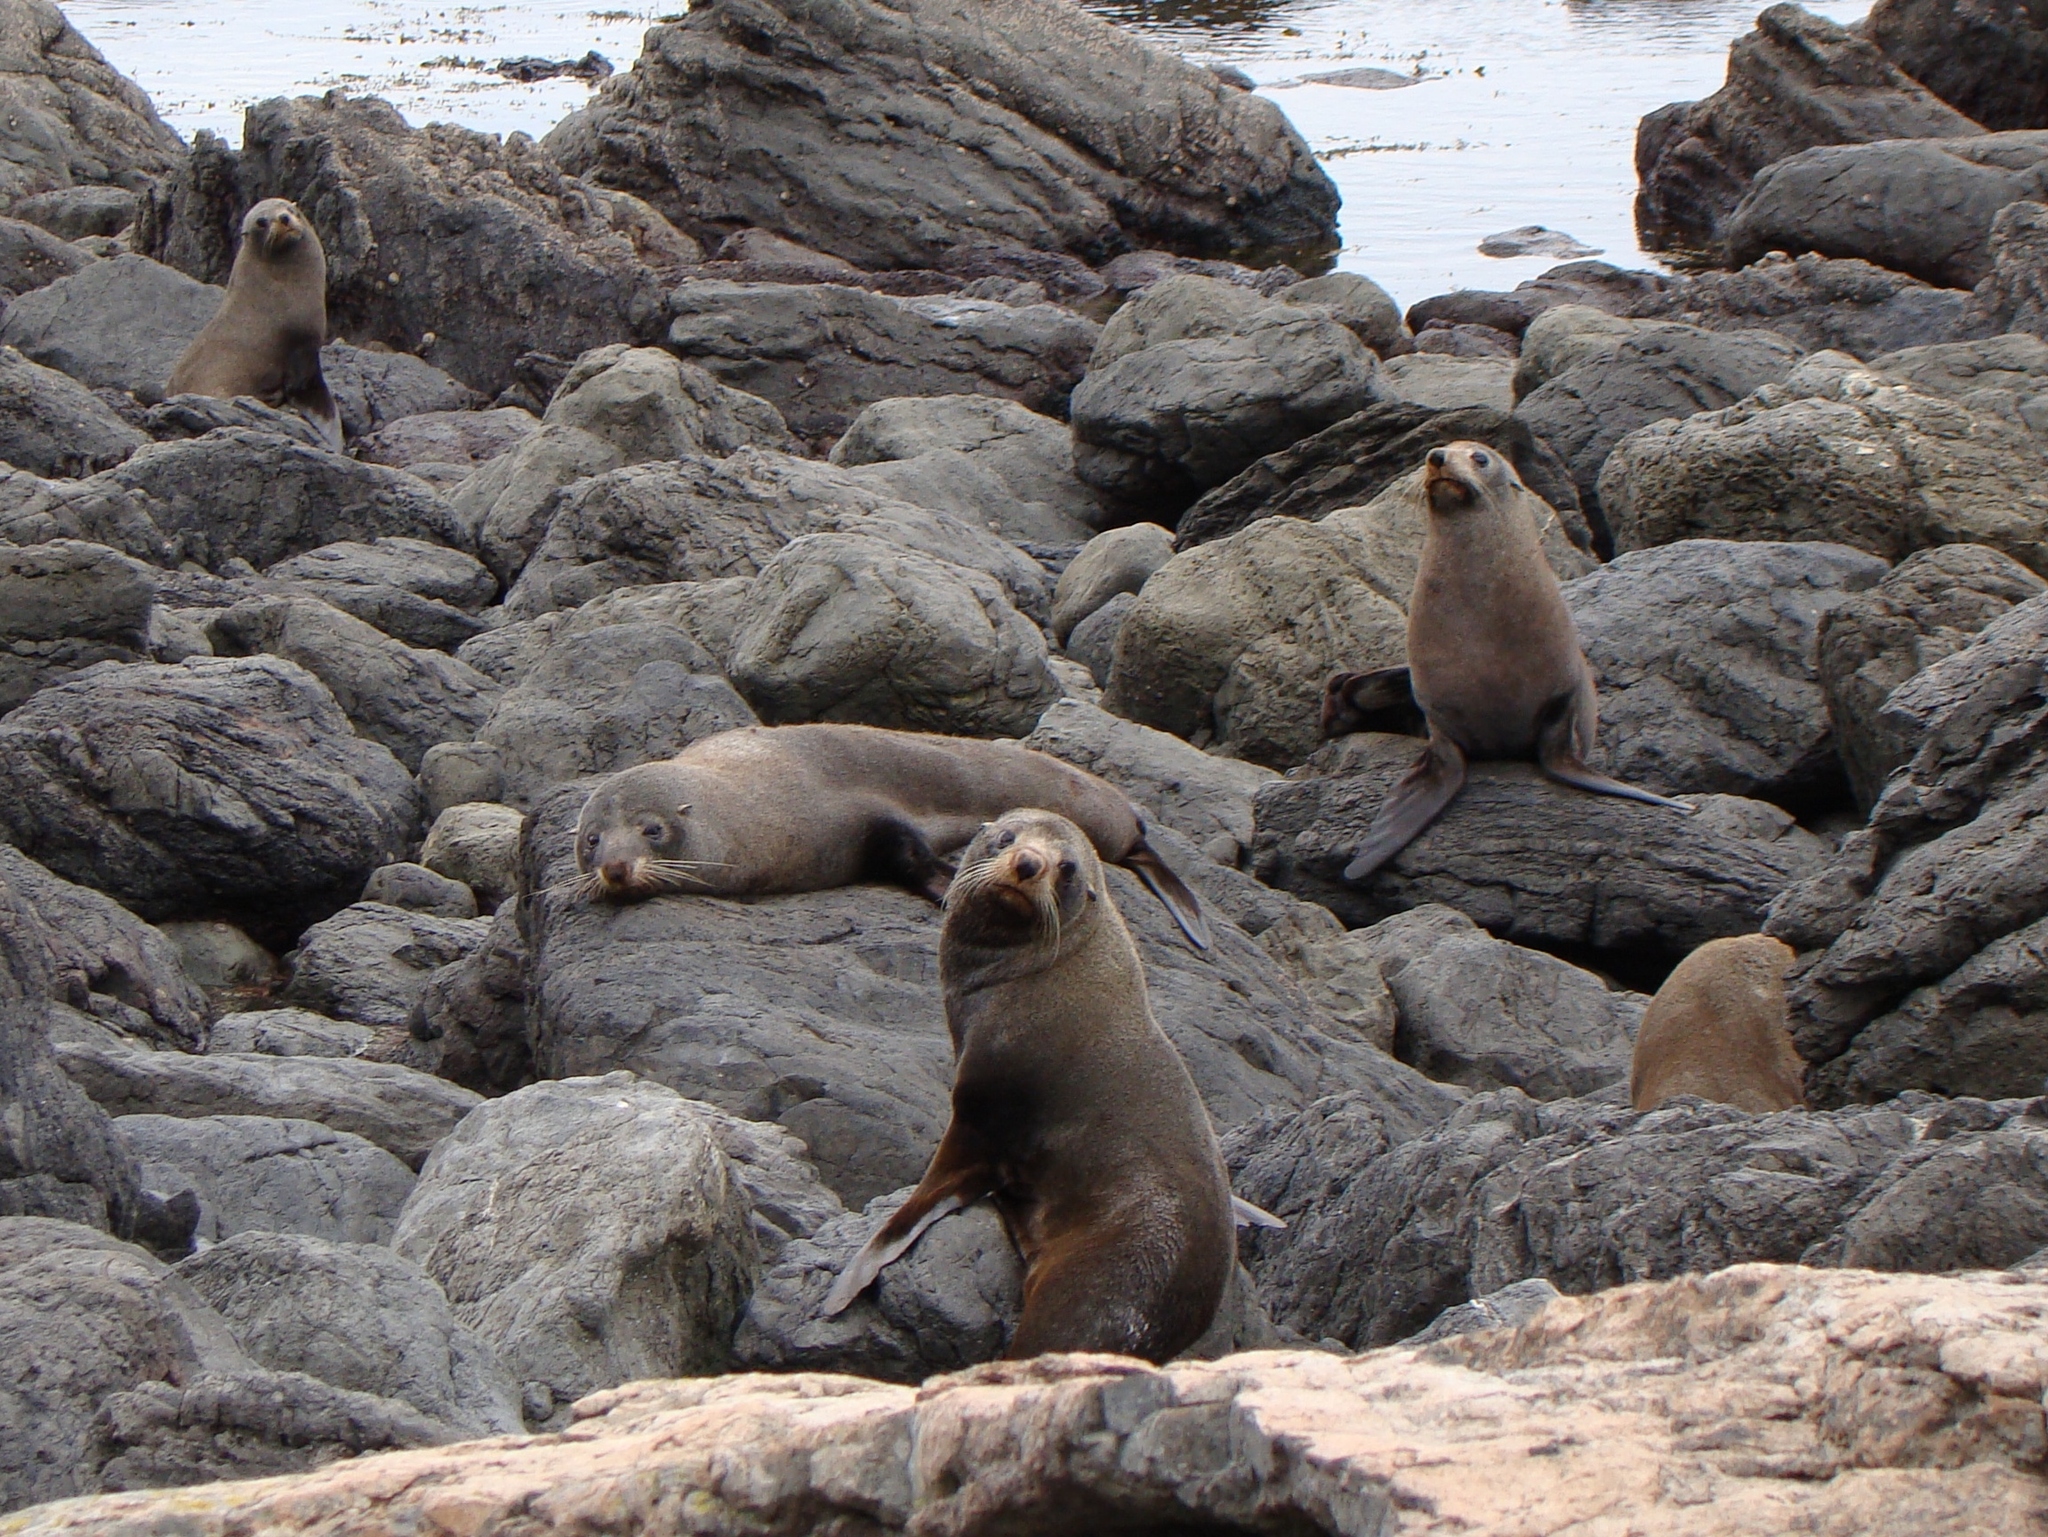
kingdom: Animalia
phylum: Chordata
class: Mammalia
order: Carnivora
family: Otariidae
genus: Arctocephalus
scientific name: Arctocephalus forsteri
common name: New zealand fur seal
